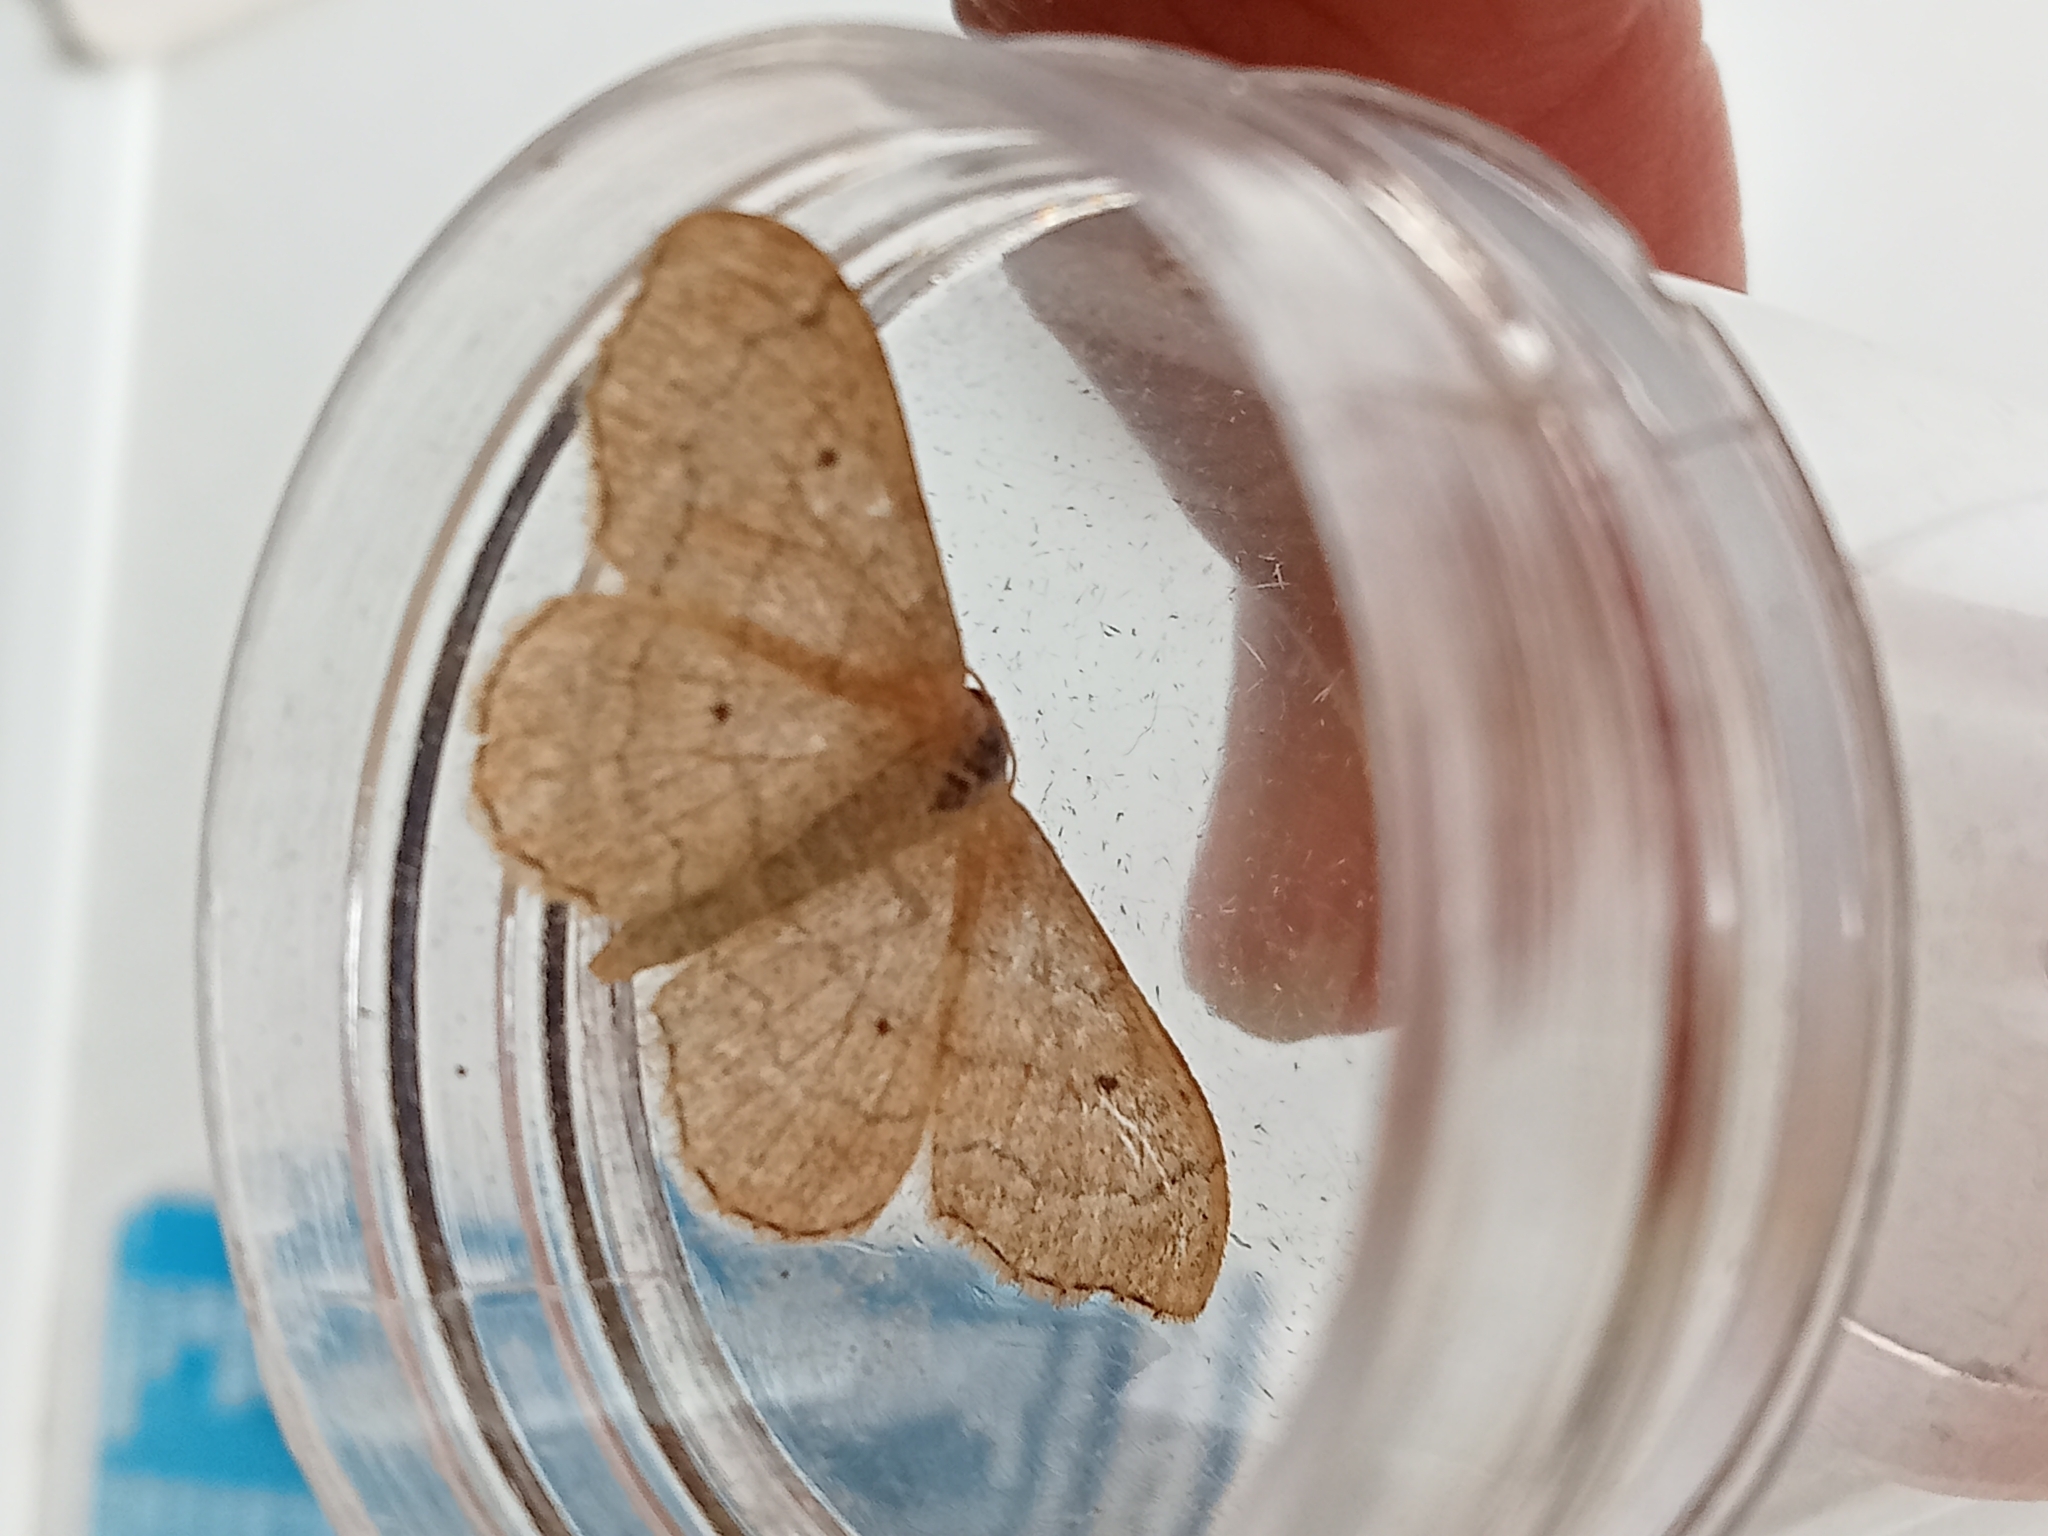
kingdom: Animalia
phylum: Arthropoda
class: Insecta
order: Lepidoptera
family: Geometridae
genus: Idaea
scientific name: Idaea aversata
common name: Riband wave
